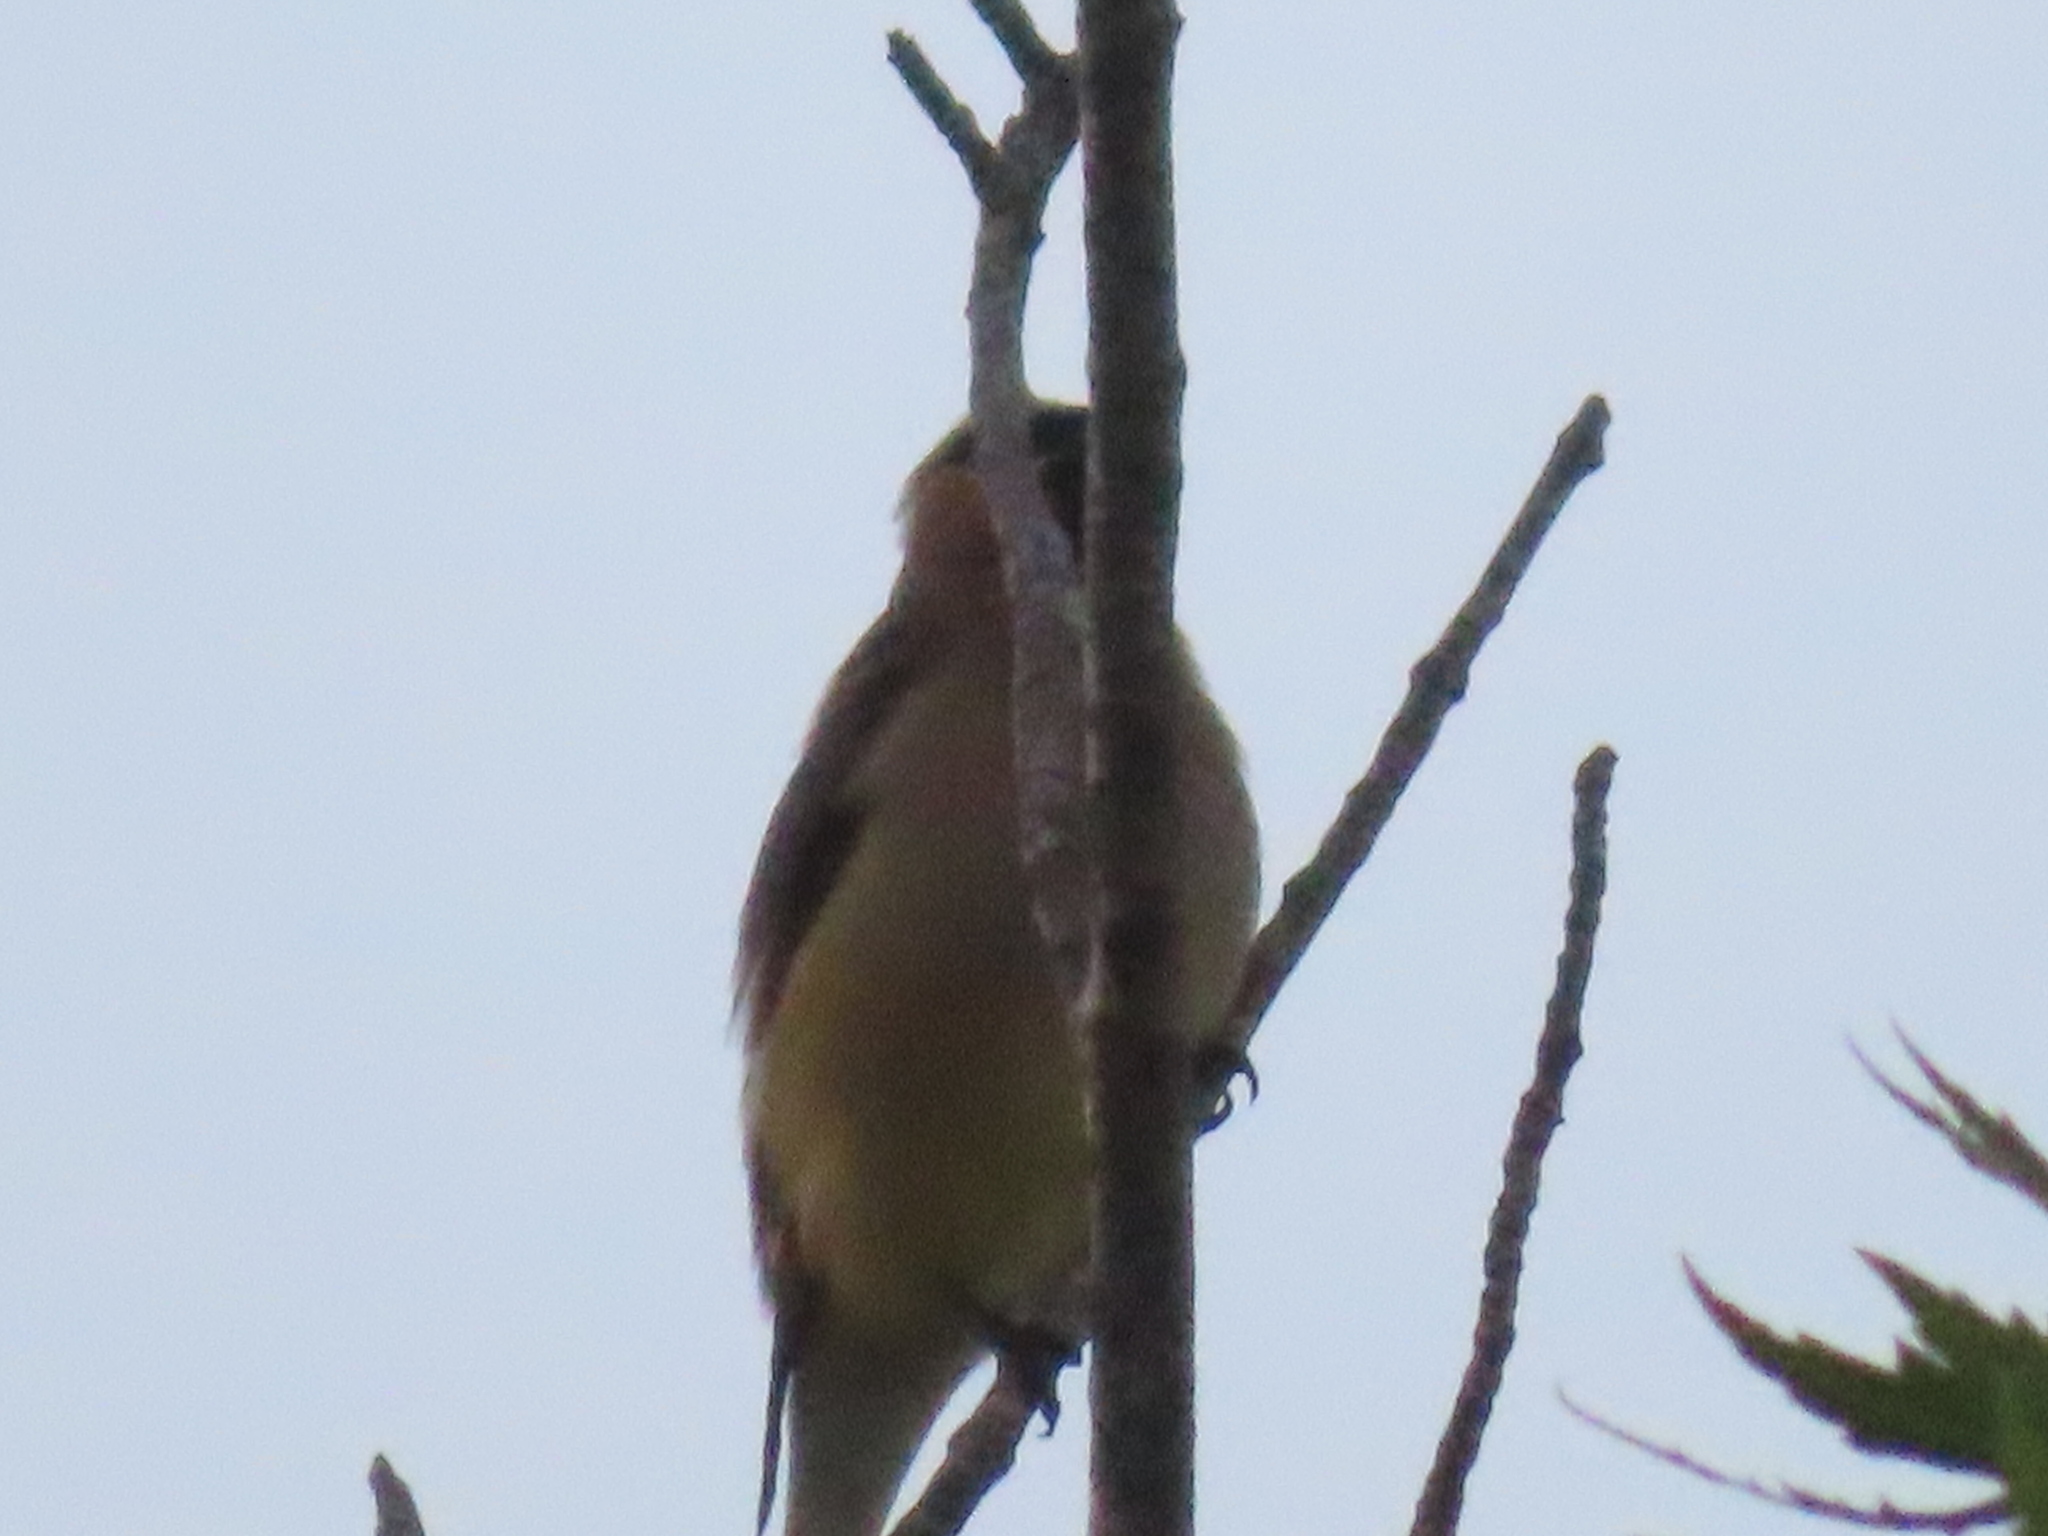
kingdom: Animalia
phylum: Chordata
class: Aves
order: Passeriformes
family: Bombycillidae
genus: Bombycilla
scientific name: Bombycilla cedrorum
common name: Cedar waxwing
